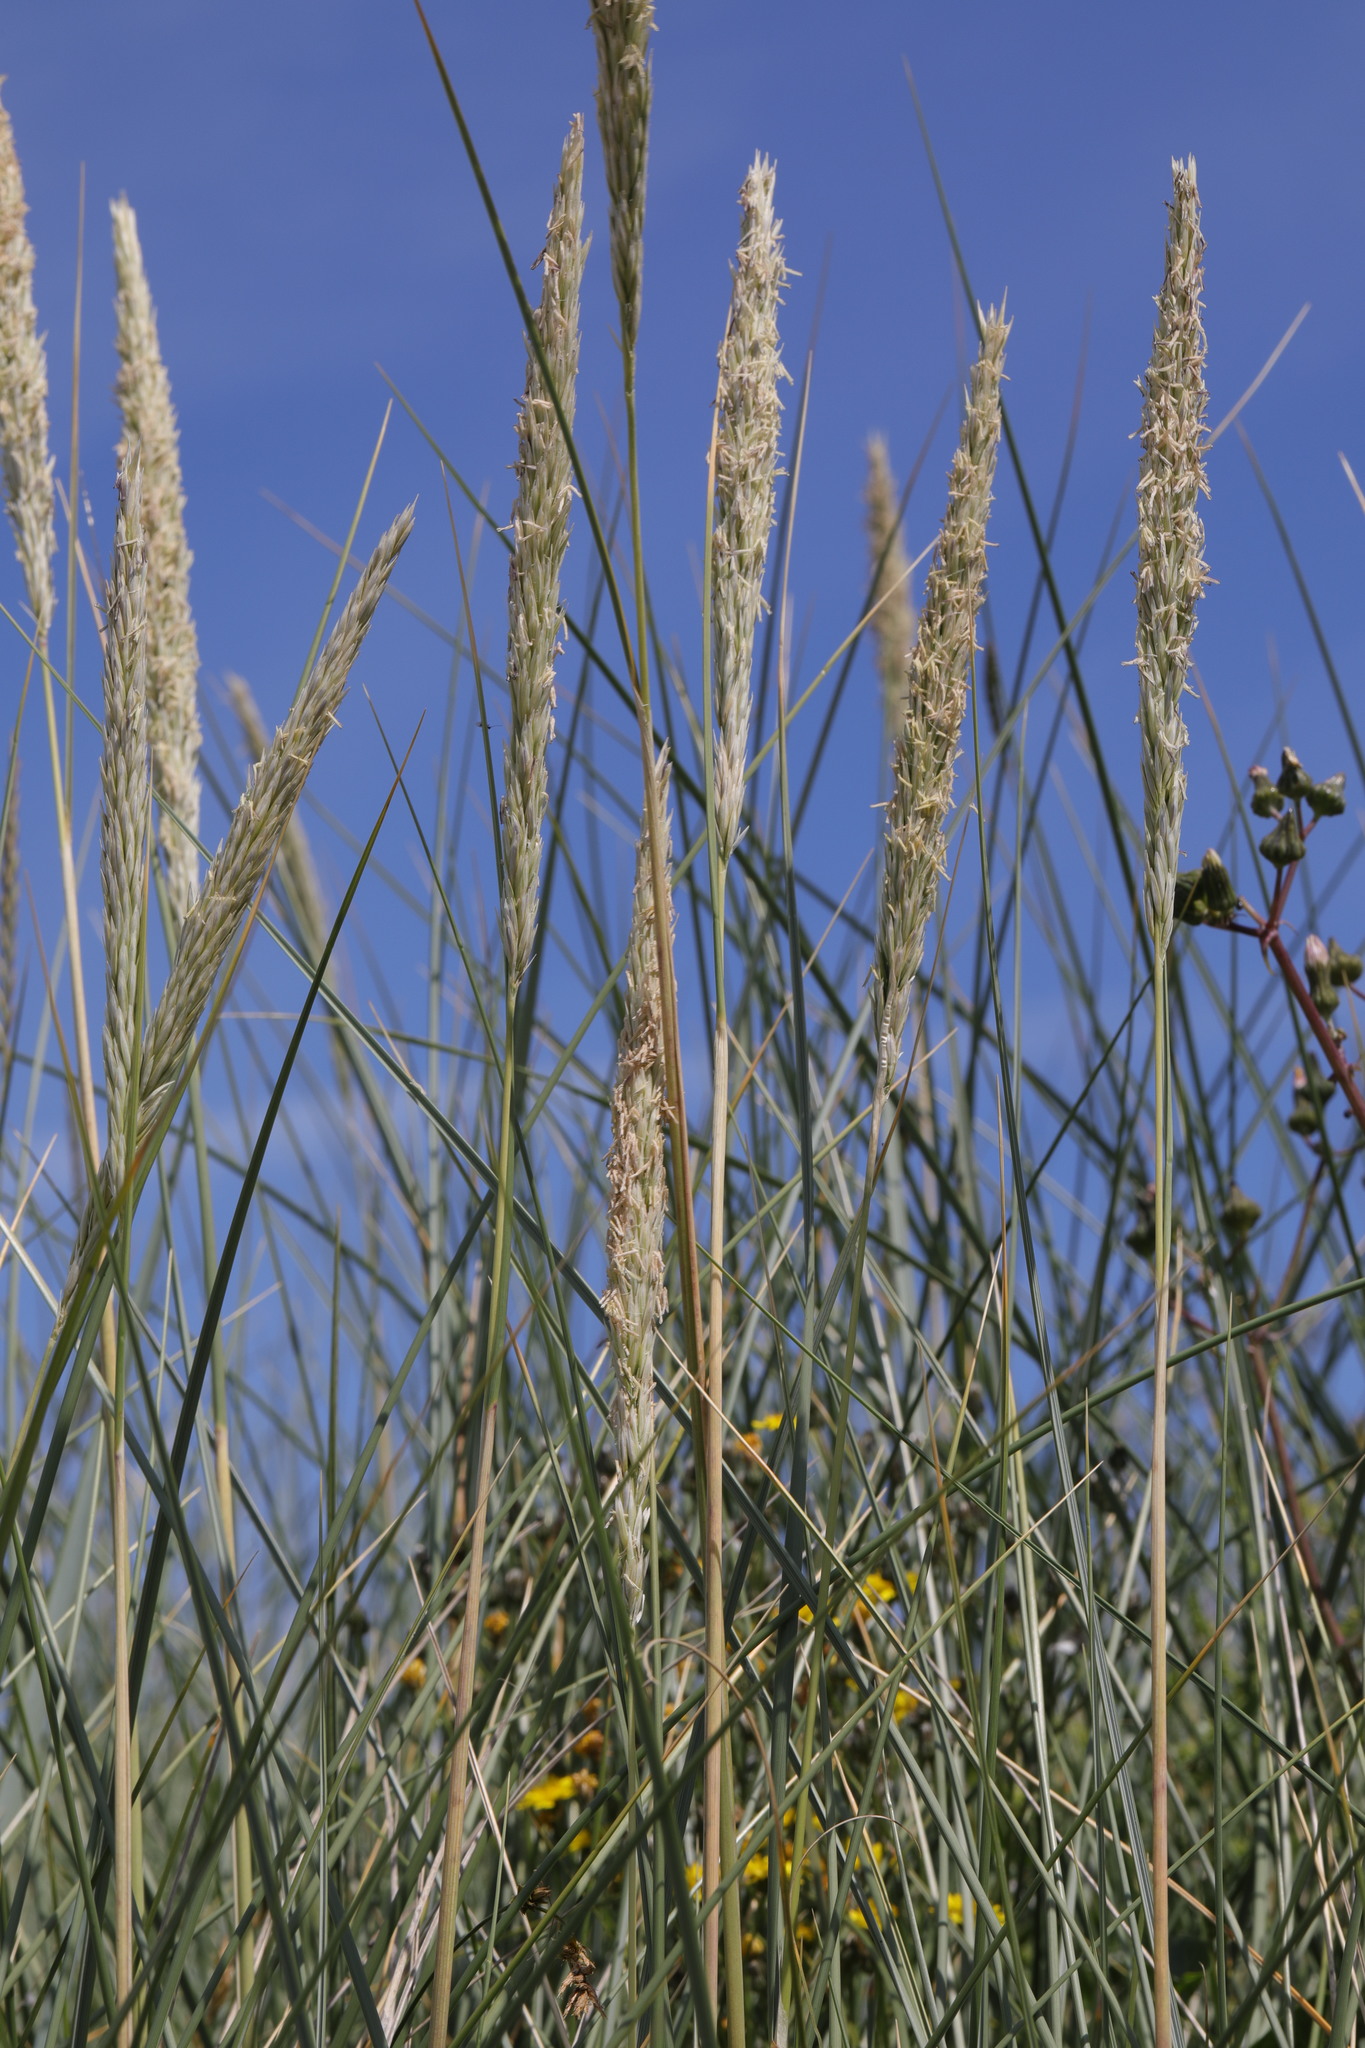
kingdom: Plantae
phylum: Tracheophyta
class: Liliopsida
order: Poales
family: Poaceae
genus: Calamagrostis
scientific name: Calamagrostis arenaria
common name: European beachgrass
